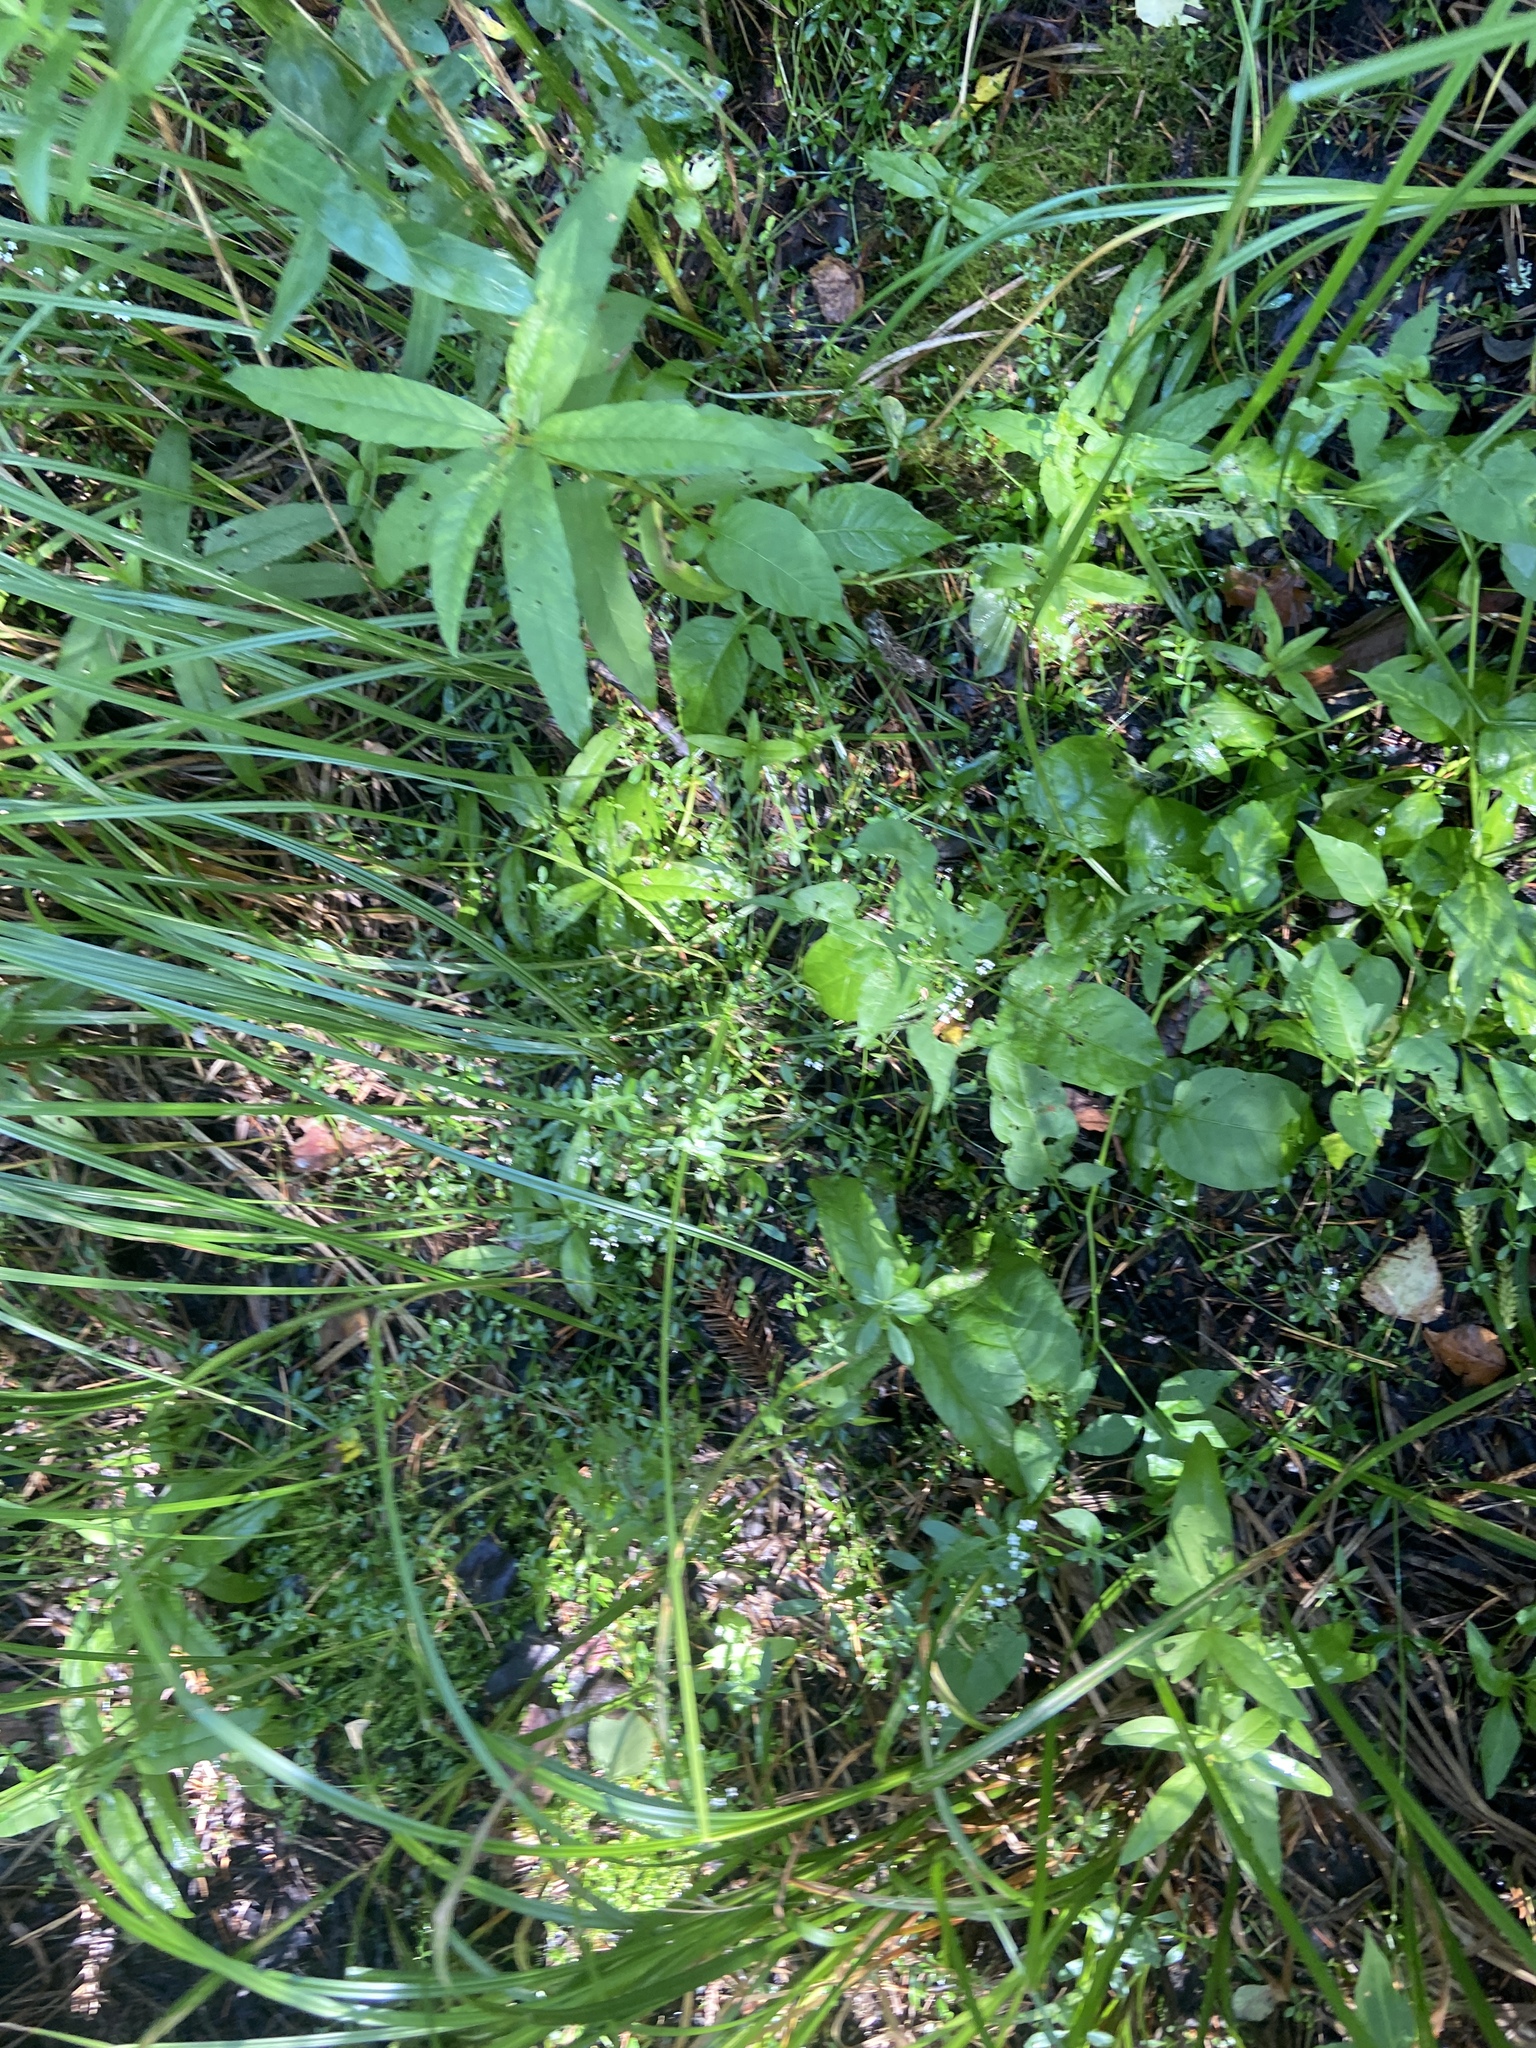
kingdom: Plantae
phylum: Tracheophyta
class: Magnoliopsida
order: Gentianales
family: Rubiaceae
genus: Galium
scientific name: Galium palustre
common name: Common marsh-bedstraw
